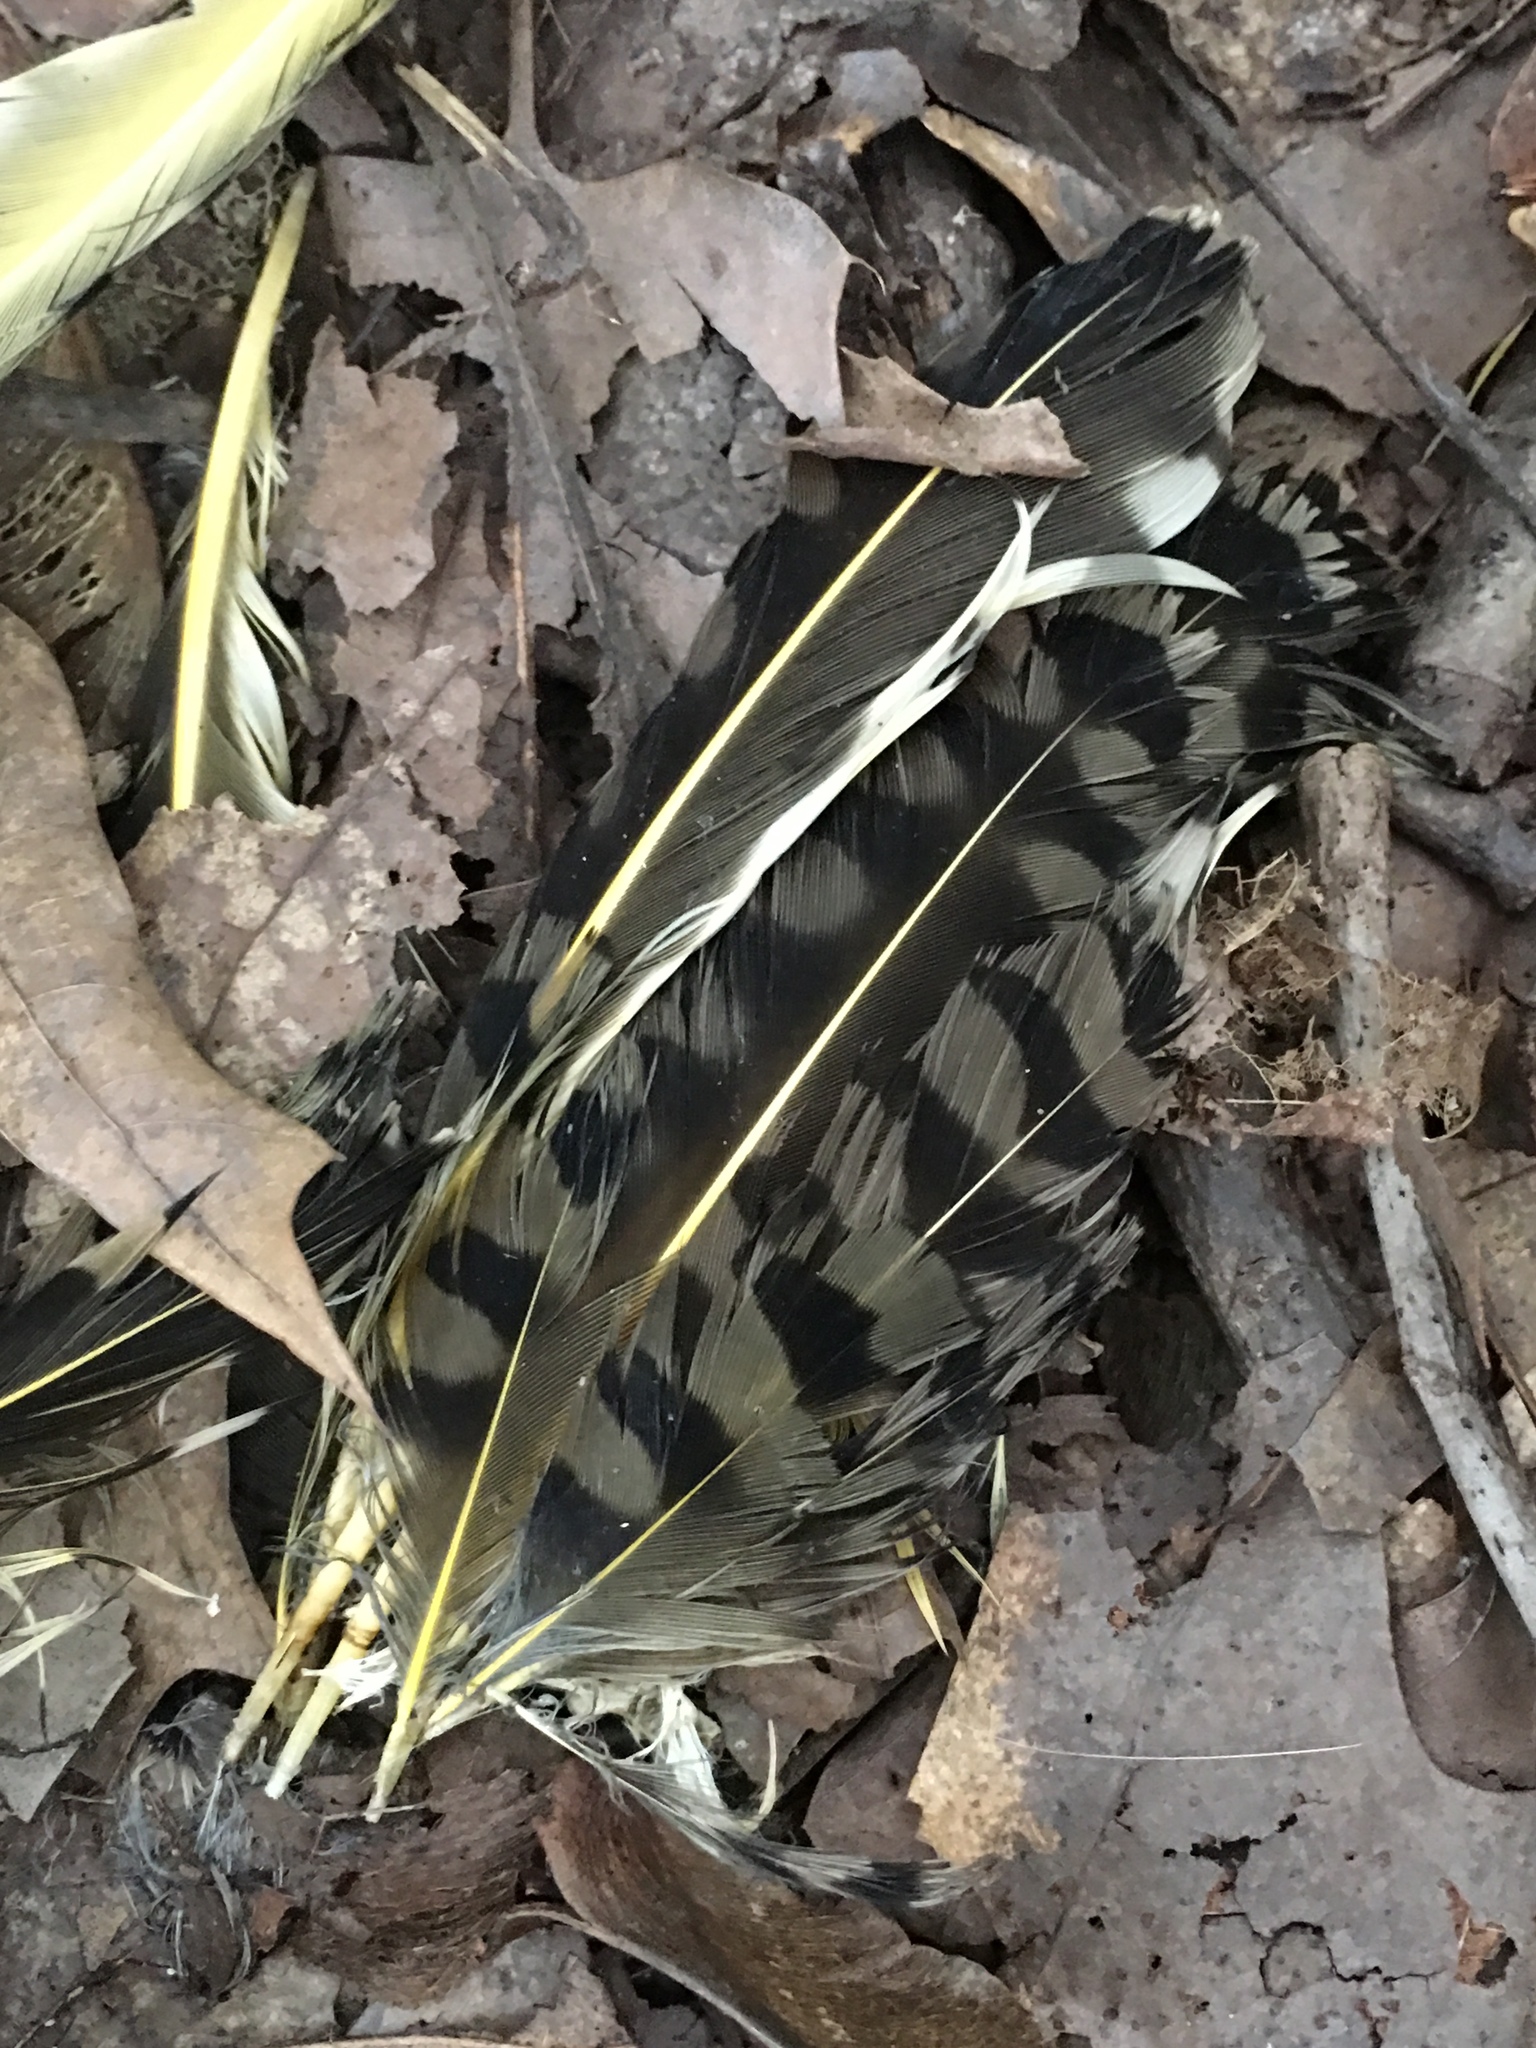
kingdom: Animalia
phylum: Chordata
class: Aves
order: Piciformes
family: Picidae
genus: Colaptes
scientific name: Colaptes auratus
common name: Northern flicker
